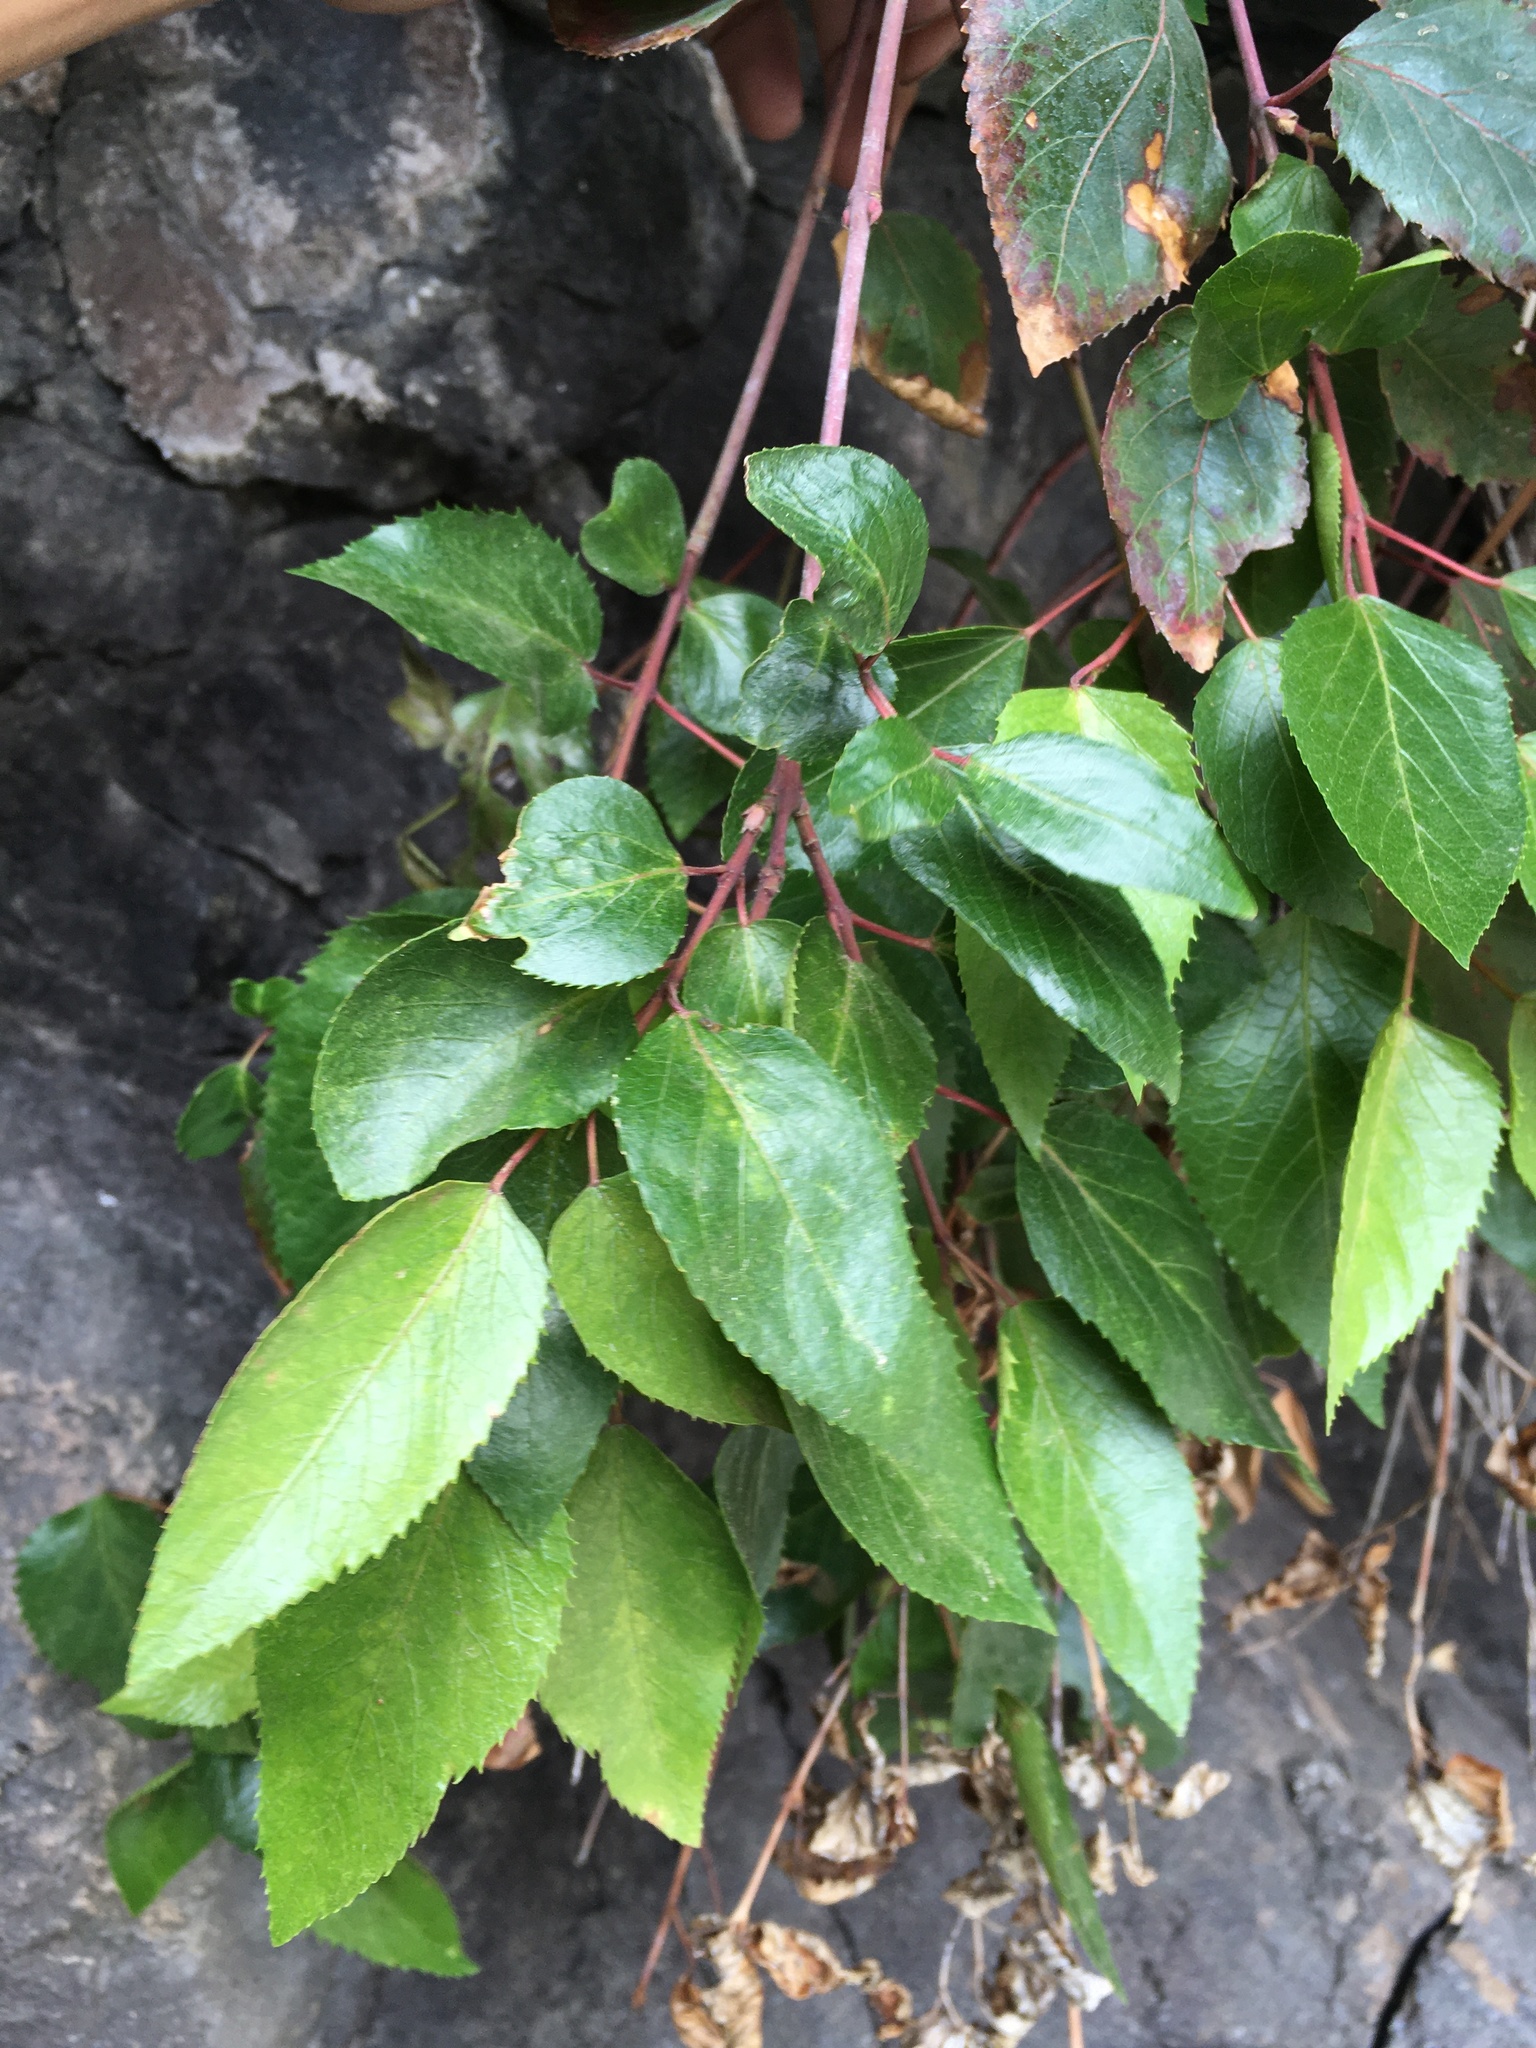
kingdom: Plantae
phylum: Tracheophyta
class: Magnoliopsida
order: Oxalidales
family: Elaeocarpaceae
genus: Aristotelia
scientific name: Aristotelia chilensis
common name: Maquei
